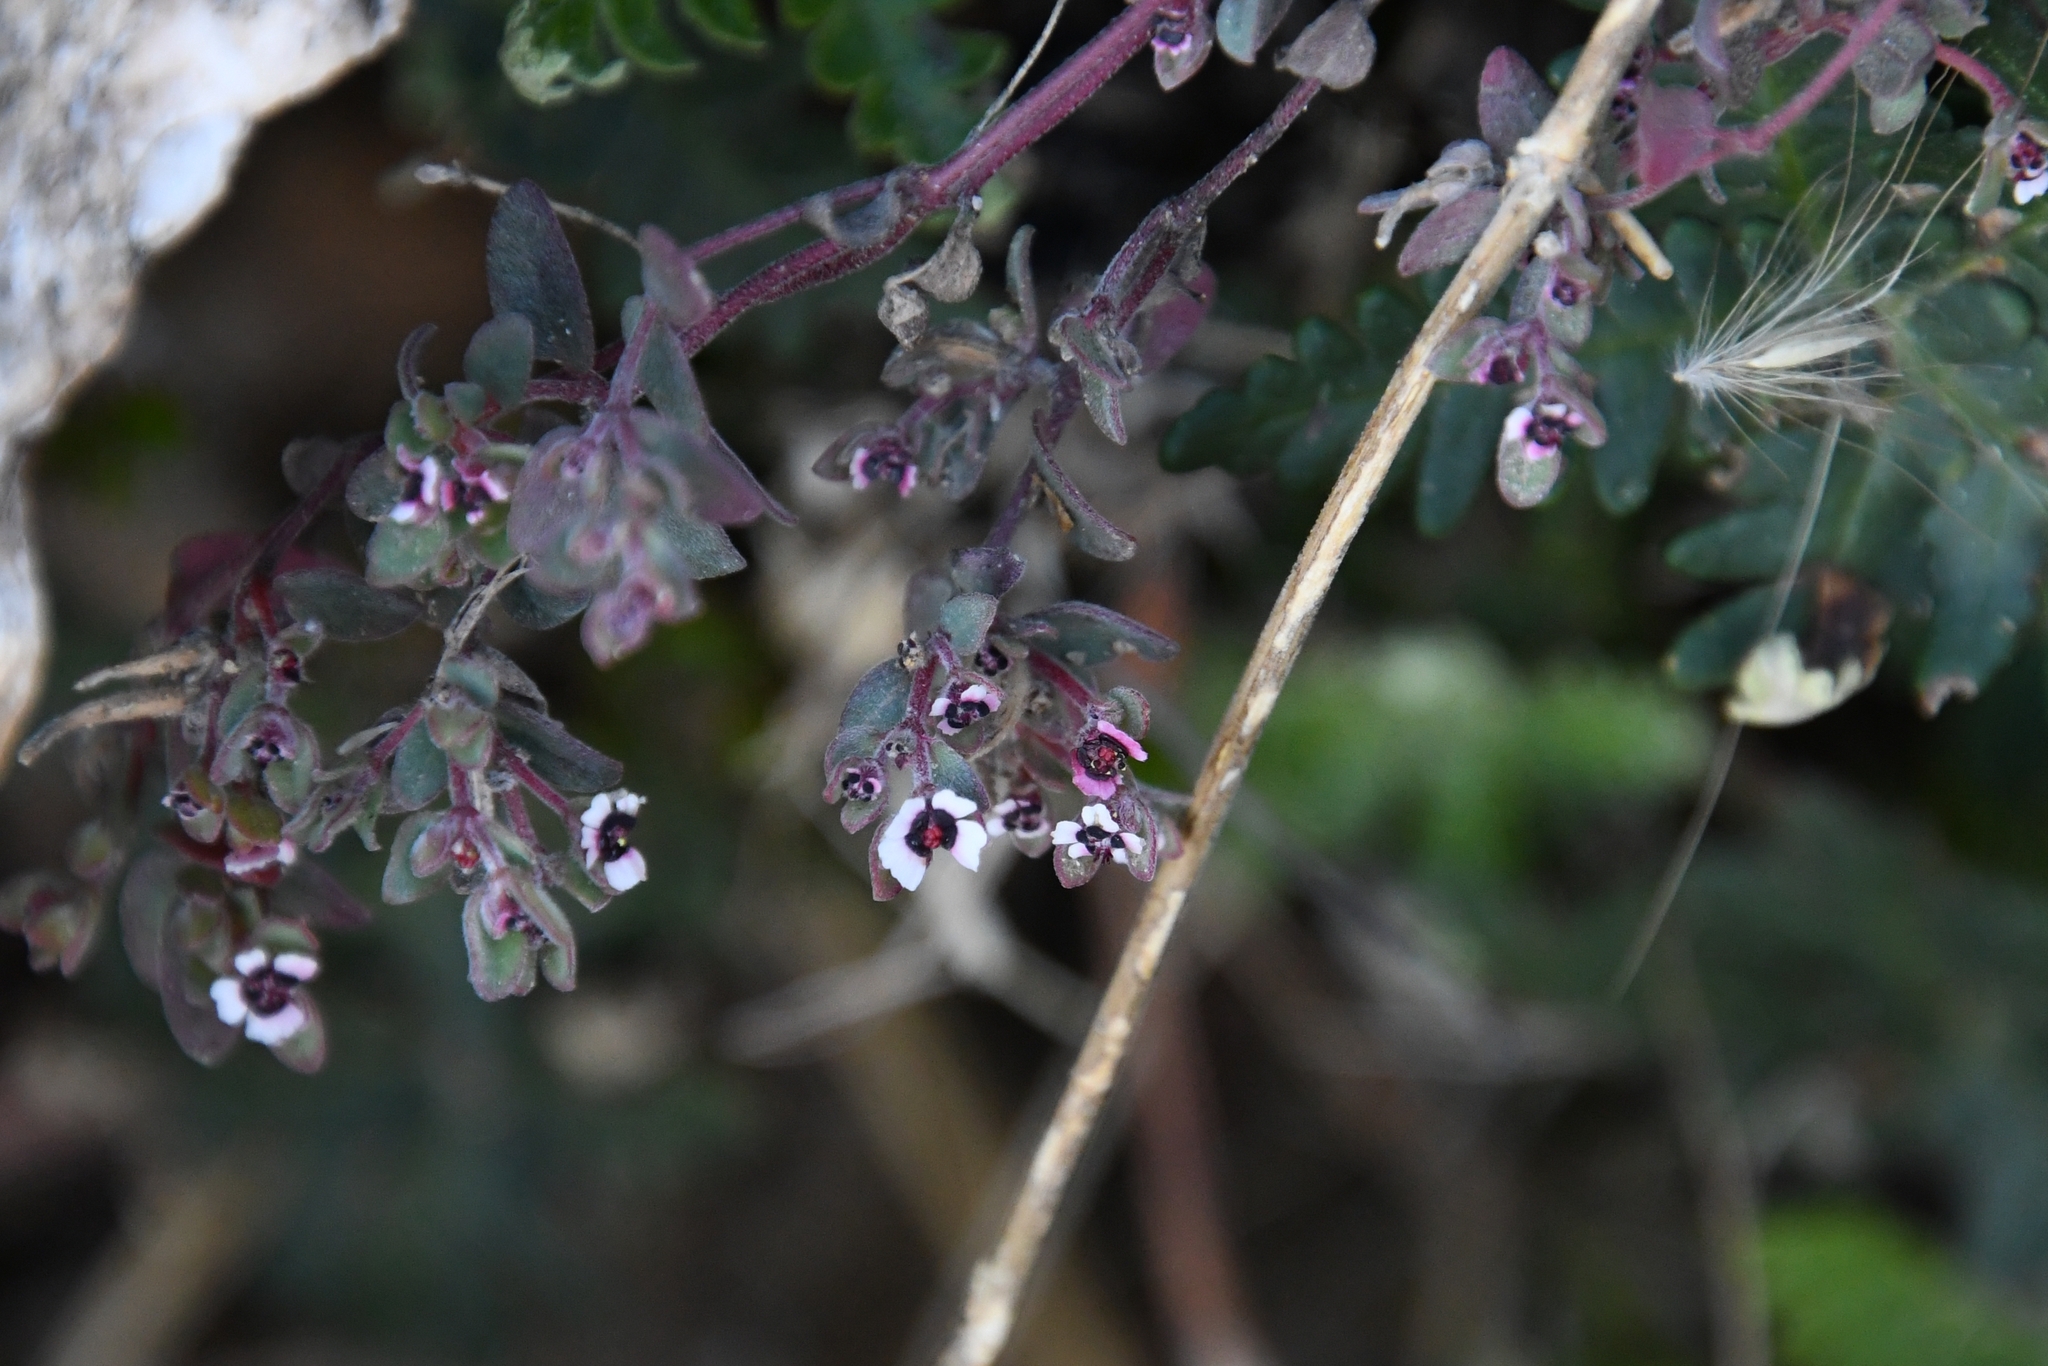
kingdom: Plantae
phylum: Tracheophyta
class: Magnoliopsida
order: Malpighiales
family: Euphorbiaceae
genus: Euphorbia
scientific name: Euphorbia melanadenia
